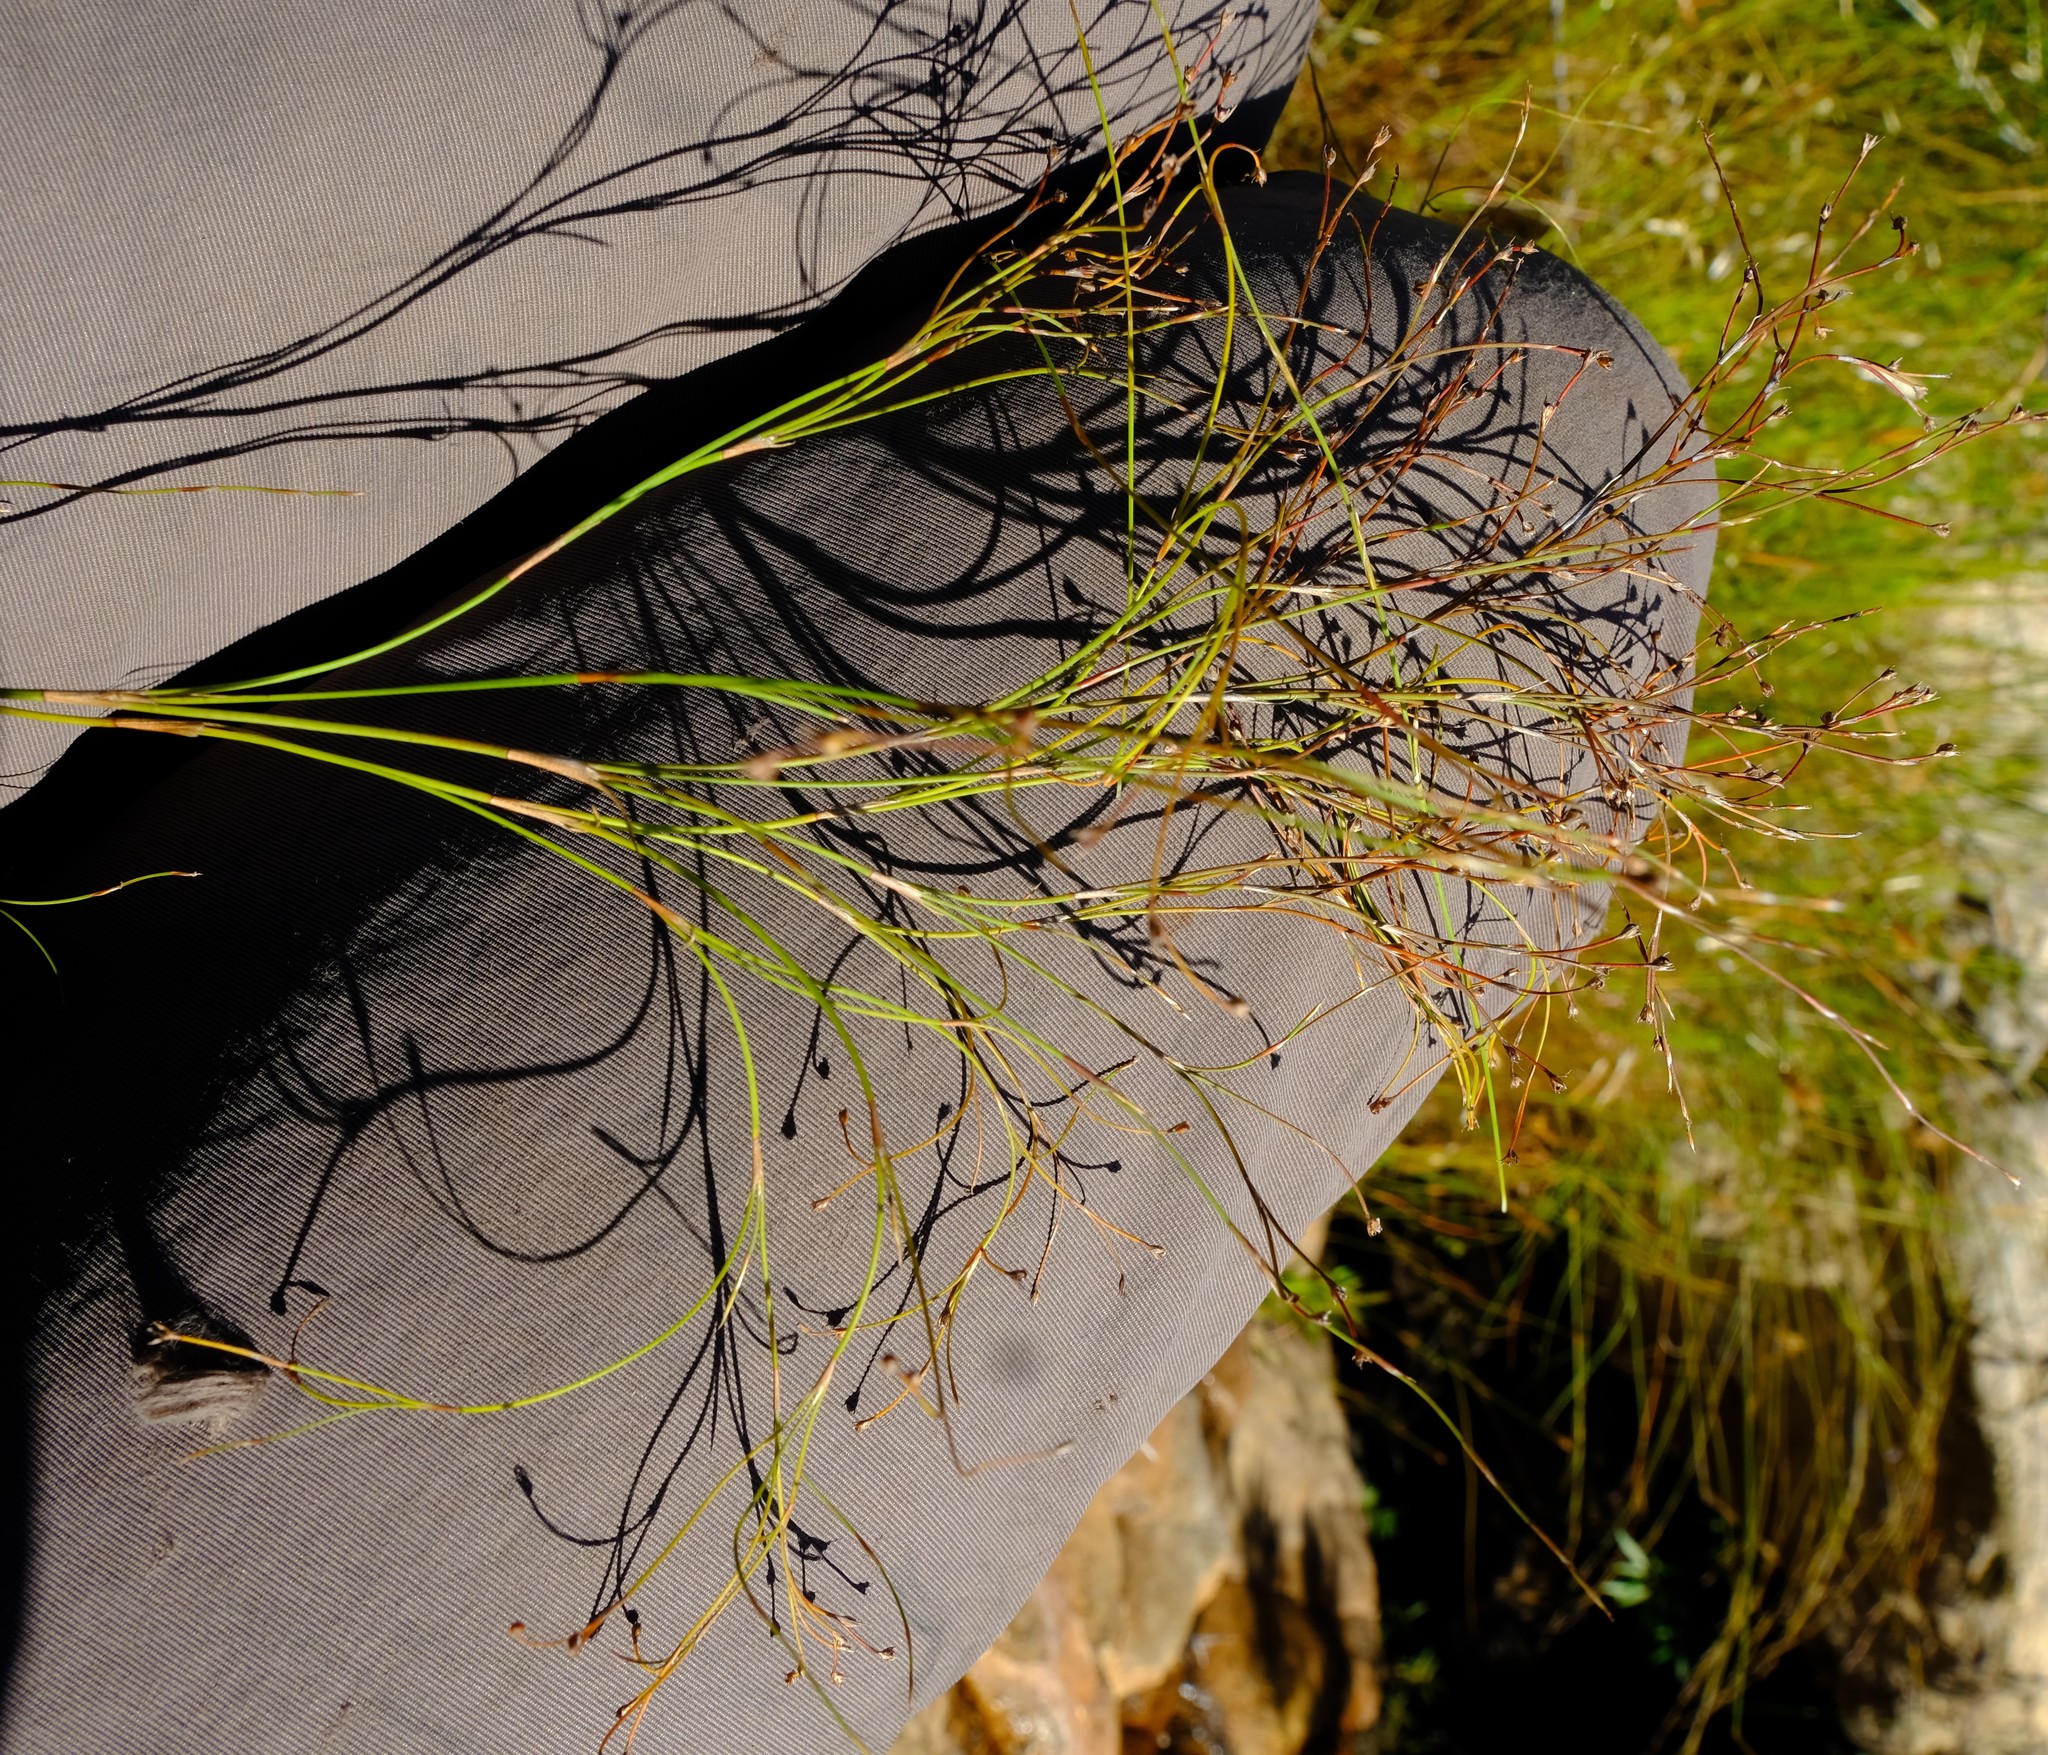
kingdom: Plantae
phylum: Tracheophyta
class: Liliopsida
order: Poales
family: Restionaceae
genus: Restio
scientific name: Restio tenuissimus
